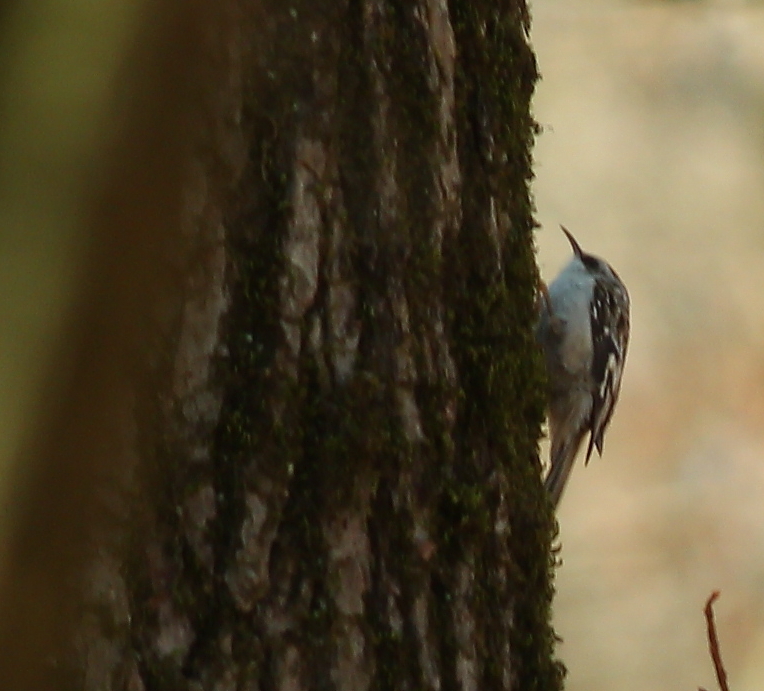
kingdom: Animalia
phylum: Chordata
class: Aves
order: Passeriformes
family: Certhiidae
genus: Certhia
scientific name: Certhia americana
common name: Brown creeper
